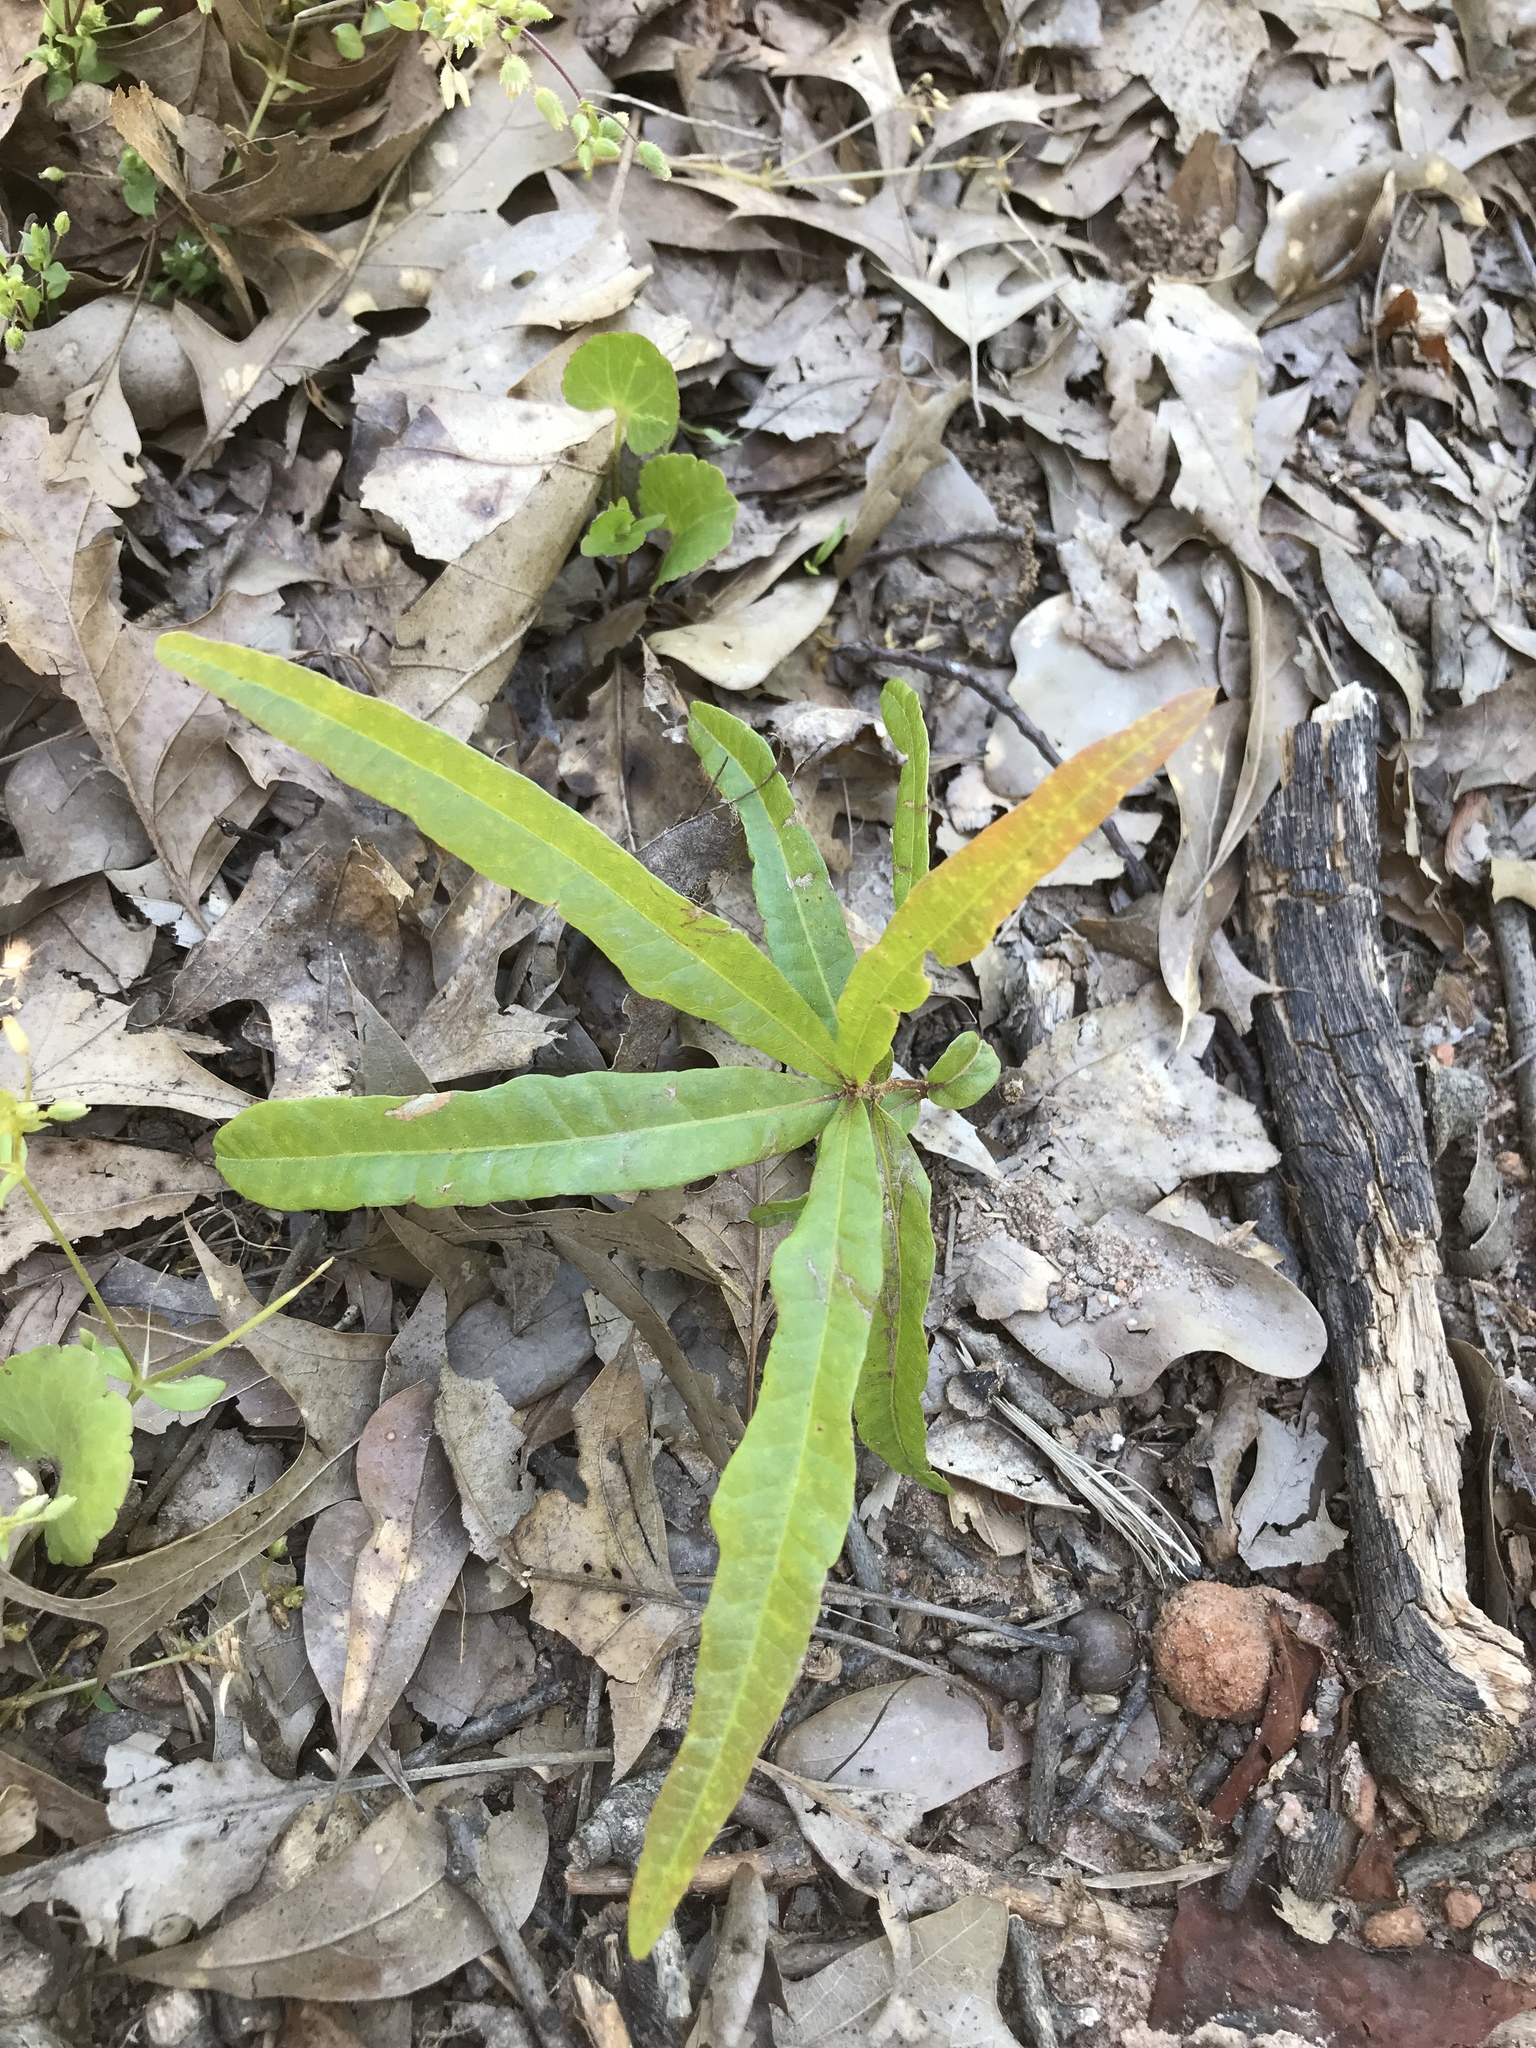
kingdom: Plantae
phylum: Tracheophyta
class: Magnoliopsida
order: Fagales
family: Fagaceae
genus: Quercus
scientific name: Quercus phellos
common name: Willow oak
